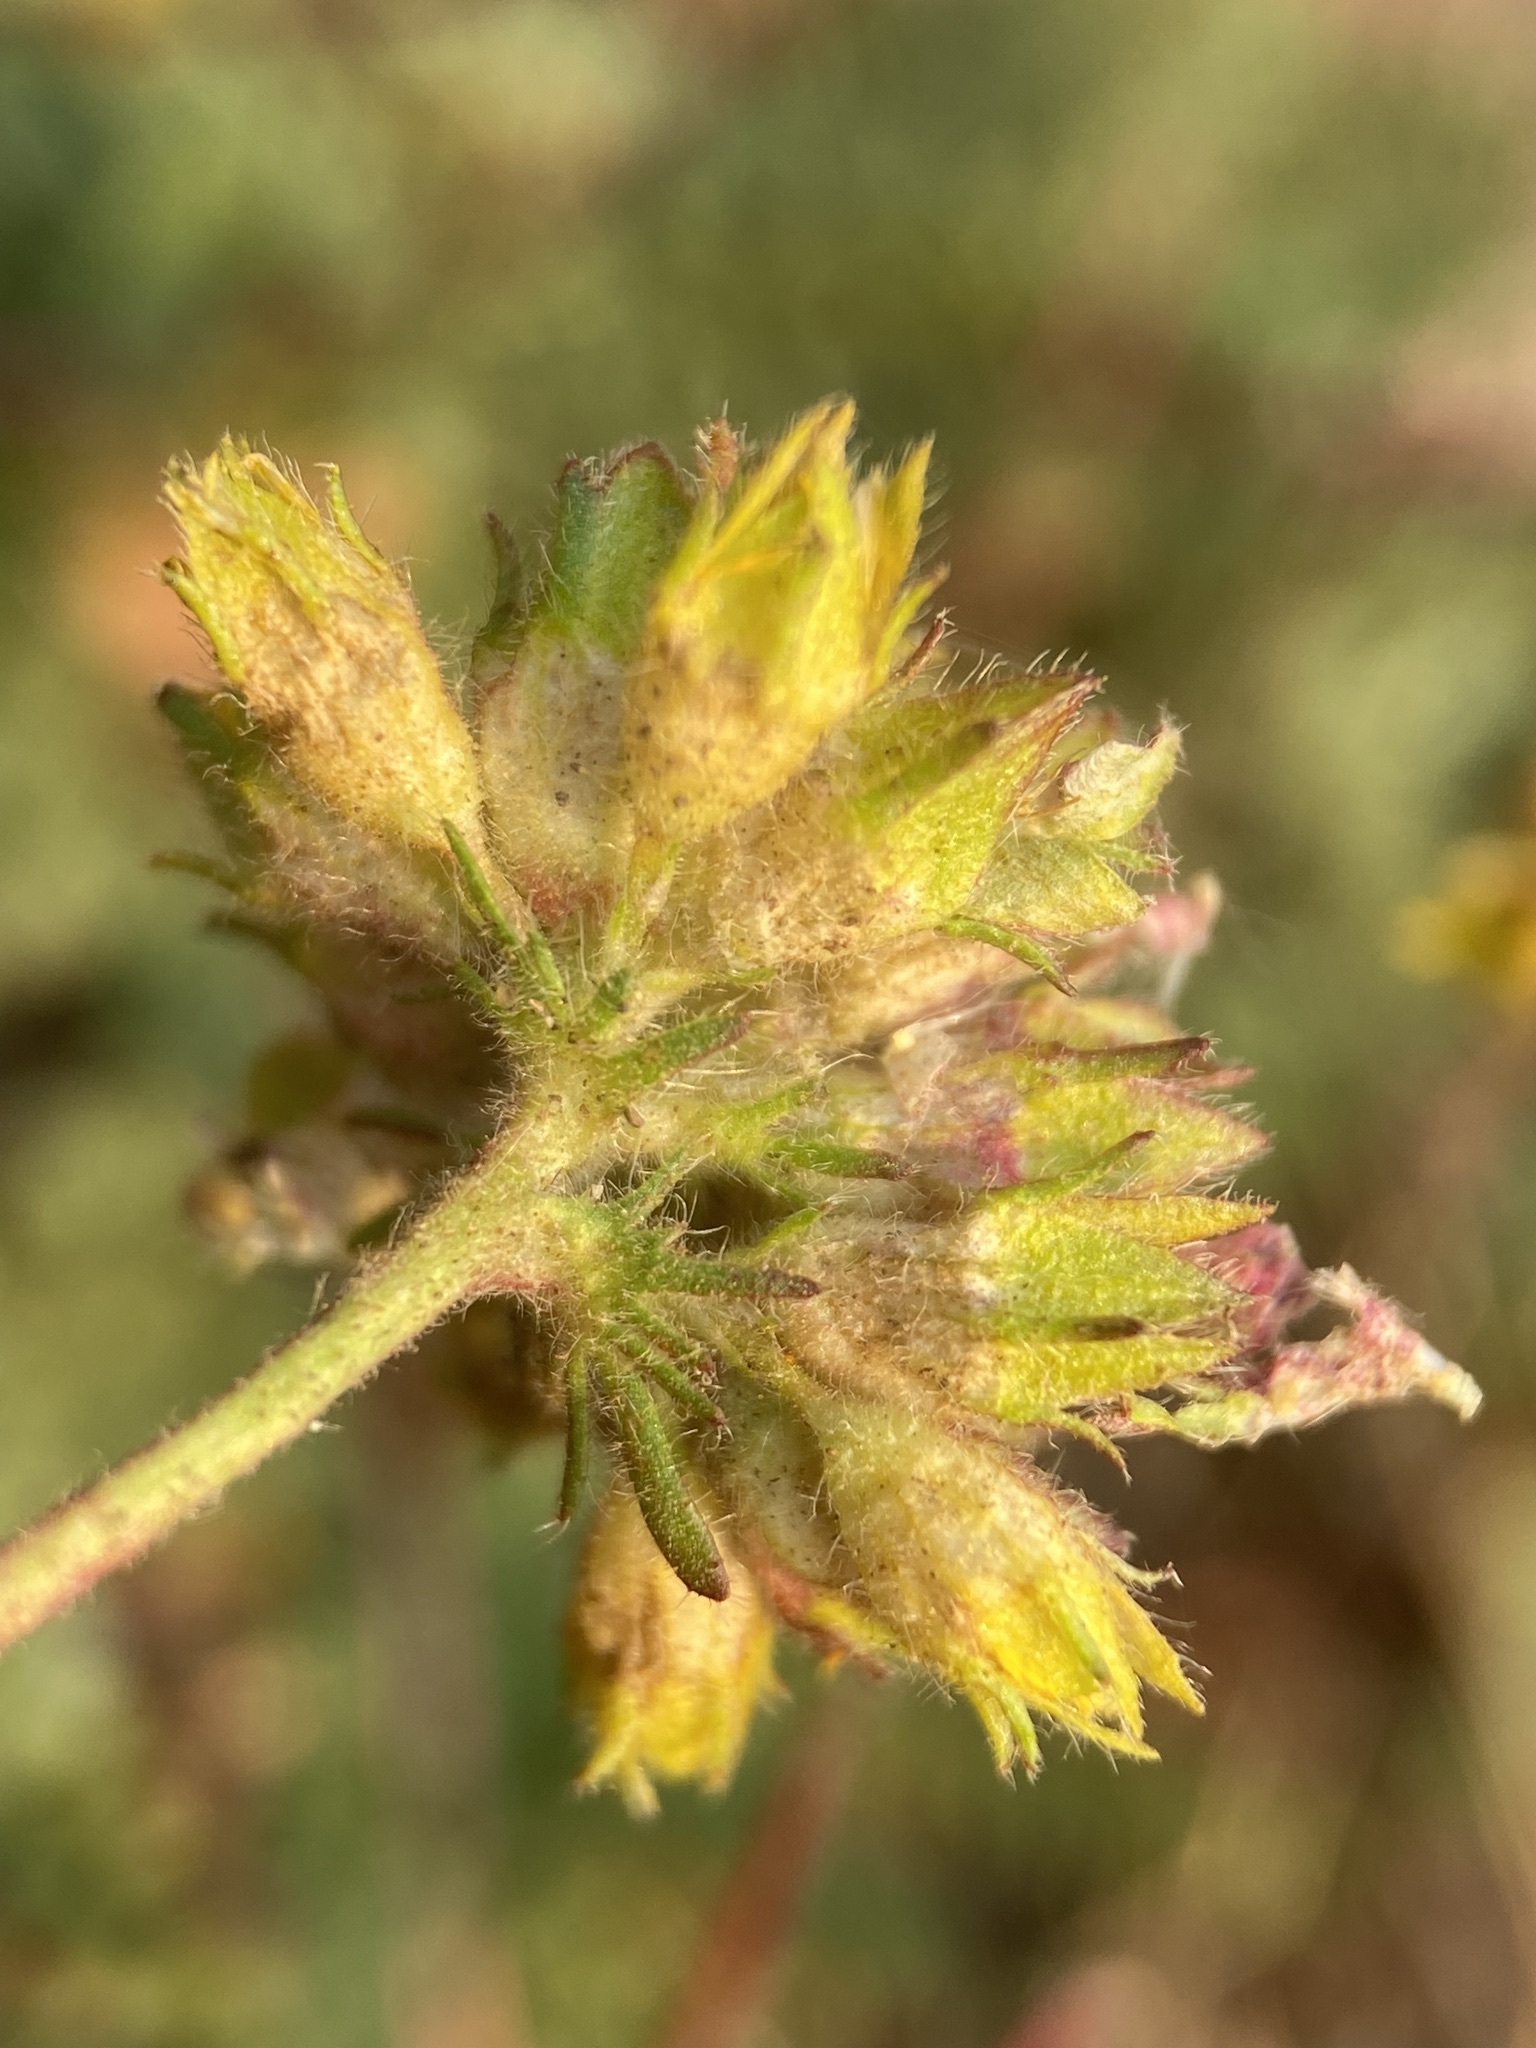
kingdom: Plantae
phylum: Tracheophyta
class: Magnoliopsida
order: Rosales
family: Rosaceae
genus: Potentilla
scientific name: Potentilla gordonii
